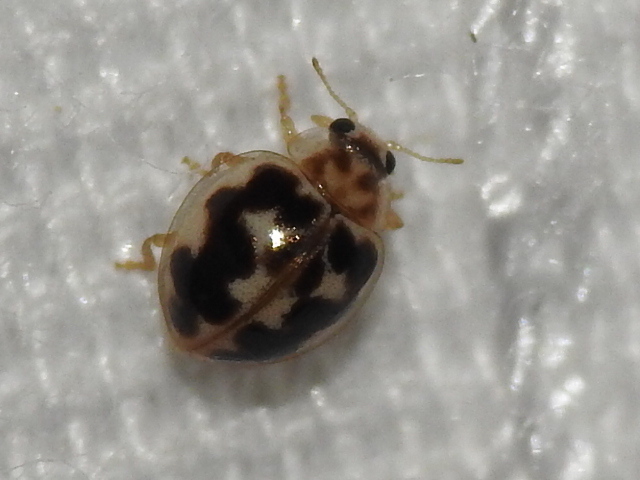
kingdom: Animalia
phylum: Arthropoda
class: Insecta
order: Coleoptera
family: Coccinellidae
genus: Psyllobora
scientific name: Psyllobora renifer
